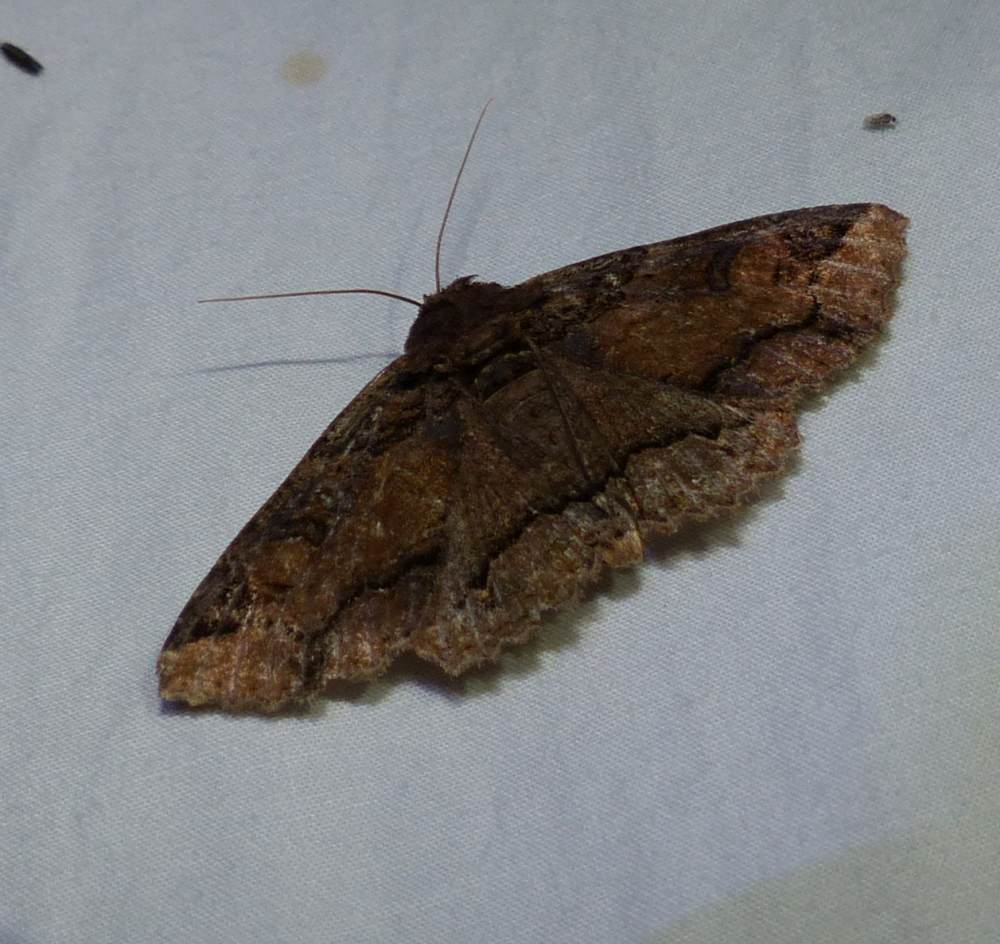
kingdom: Animalia
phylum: Arthropoda
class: Insecta
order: Lepidoptera
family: Erebidae
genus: Zale
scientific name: Zale minerea
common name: Colorful zale moth
